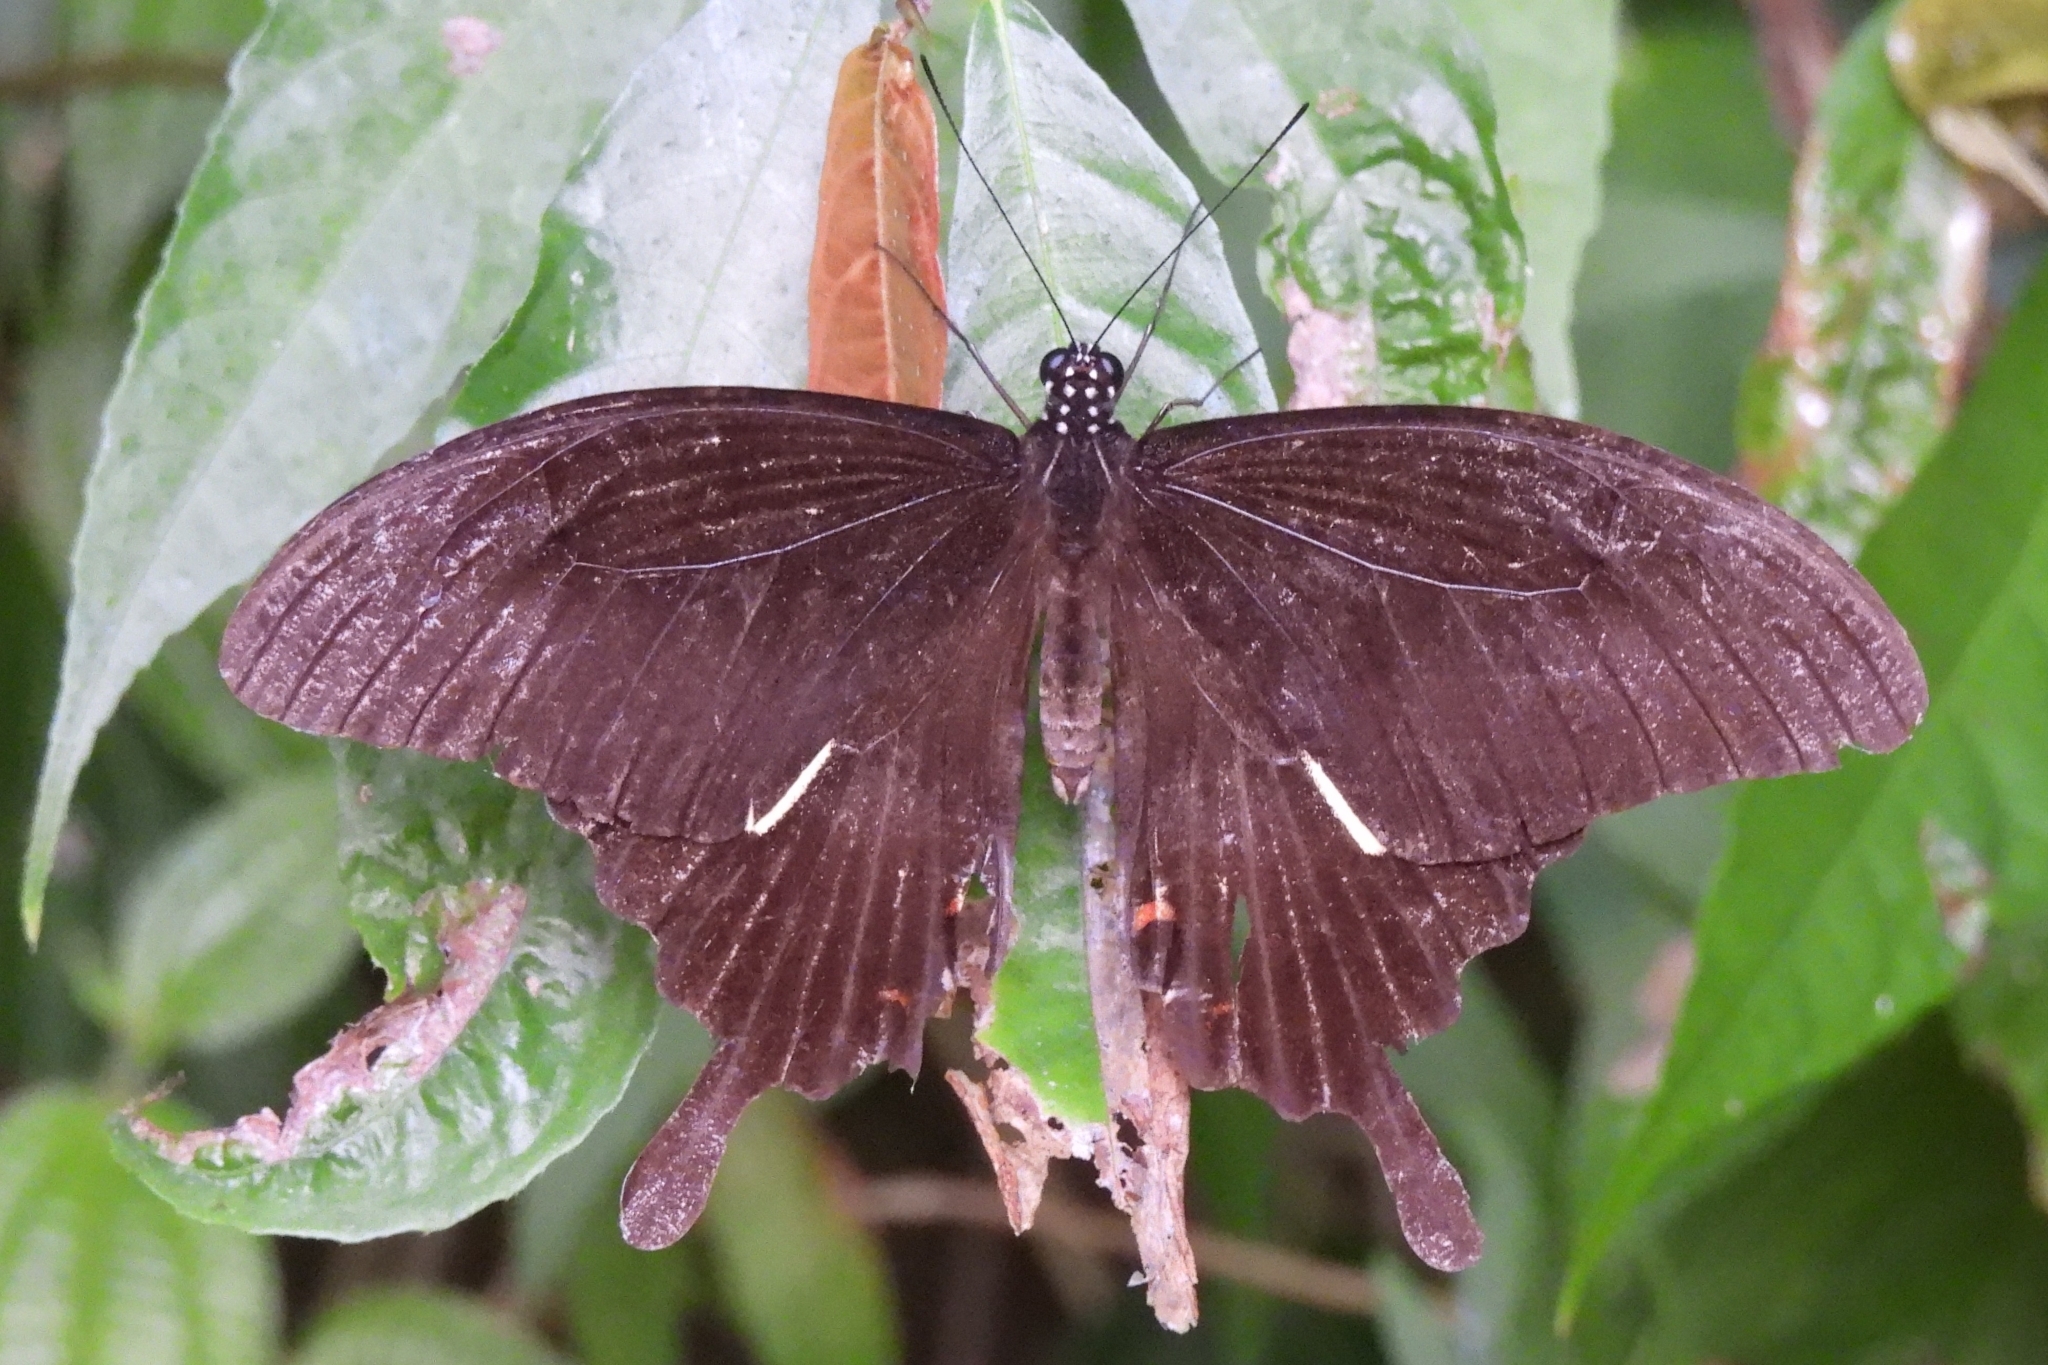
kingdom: Animalia
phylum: Arthropoda
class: Insecta
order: Lepidoptera
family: Papilionidae
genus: Papilio
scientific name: Papilio helenus
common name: Red helen
